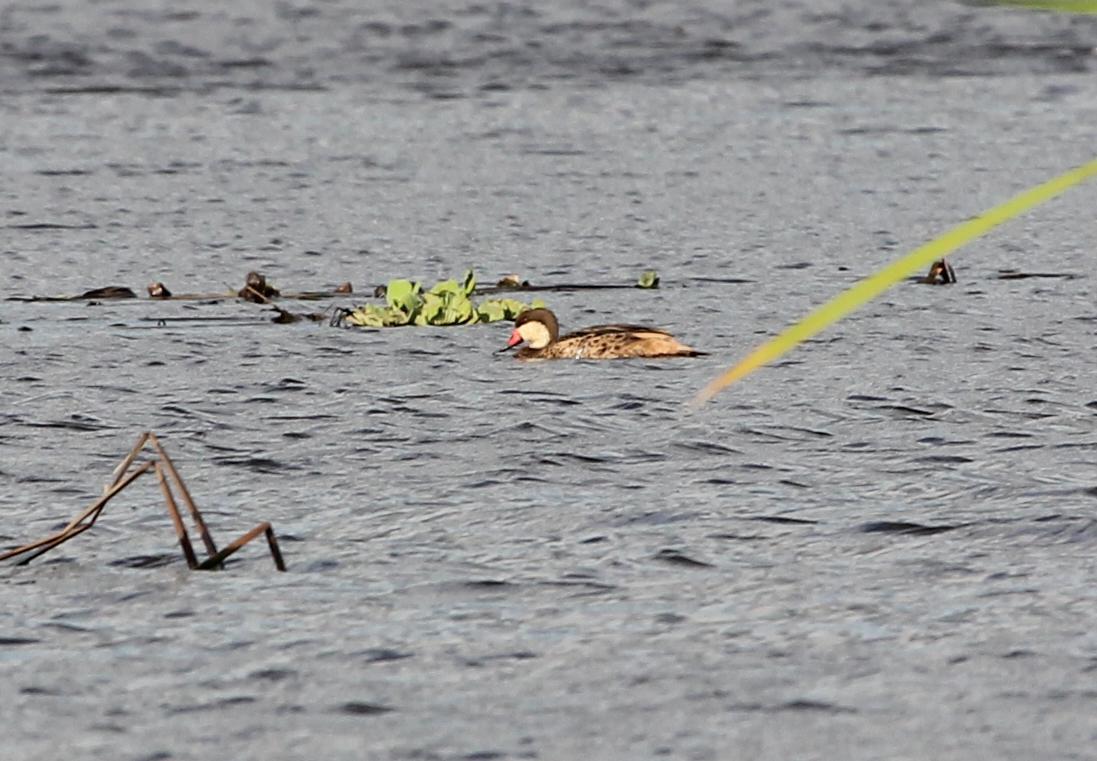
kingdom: Animalia
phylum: Chordata
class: Aves
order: Anseriformes
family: Anatidae
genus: Anas
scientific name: Anas bahamensis
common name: White-cheeked pintail
